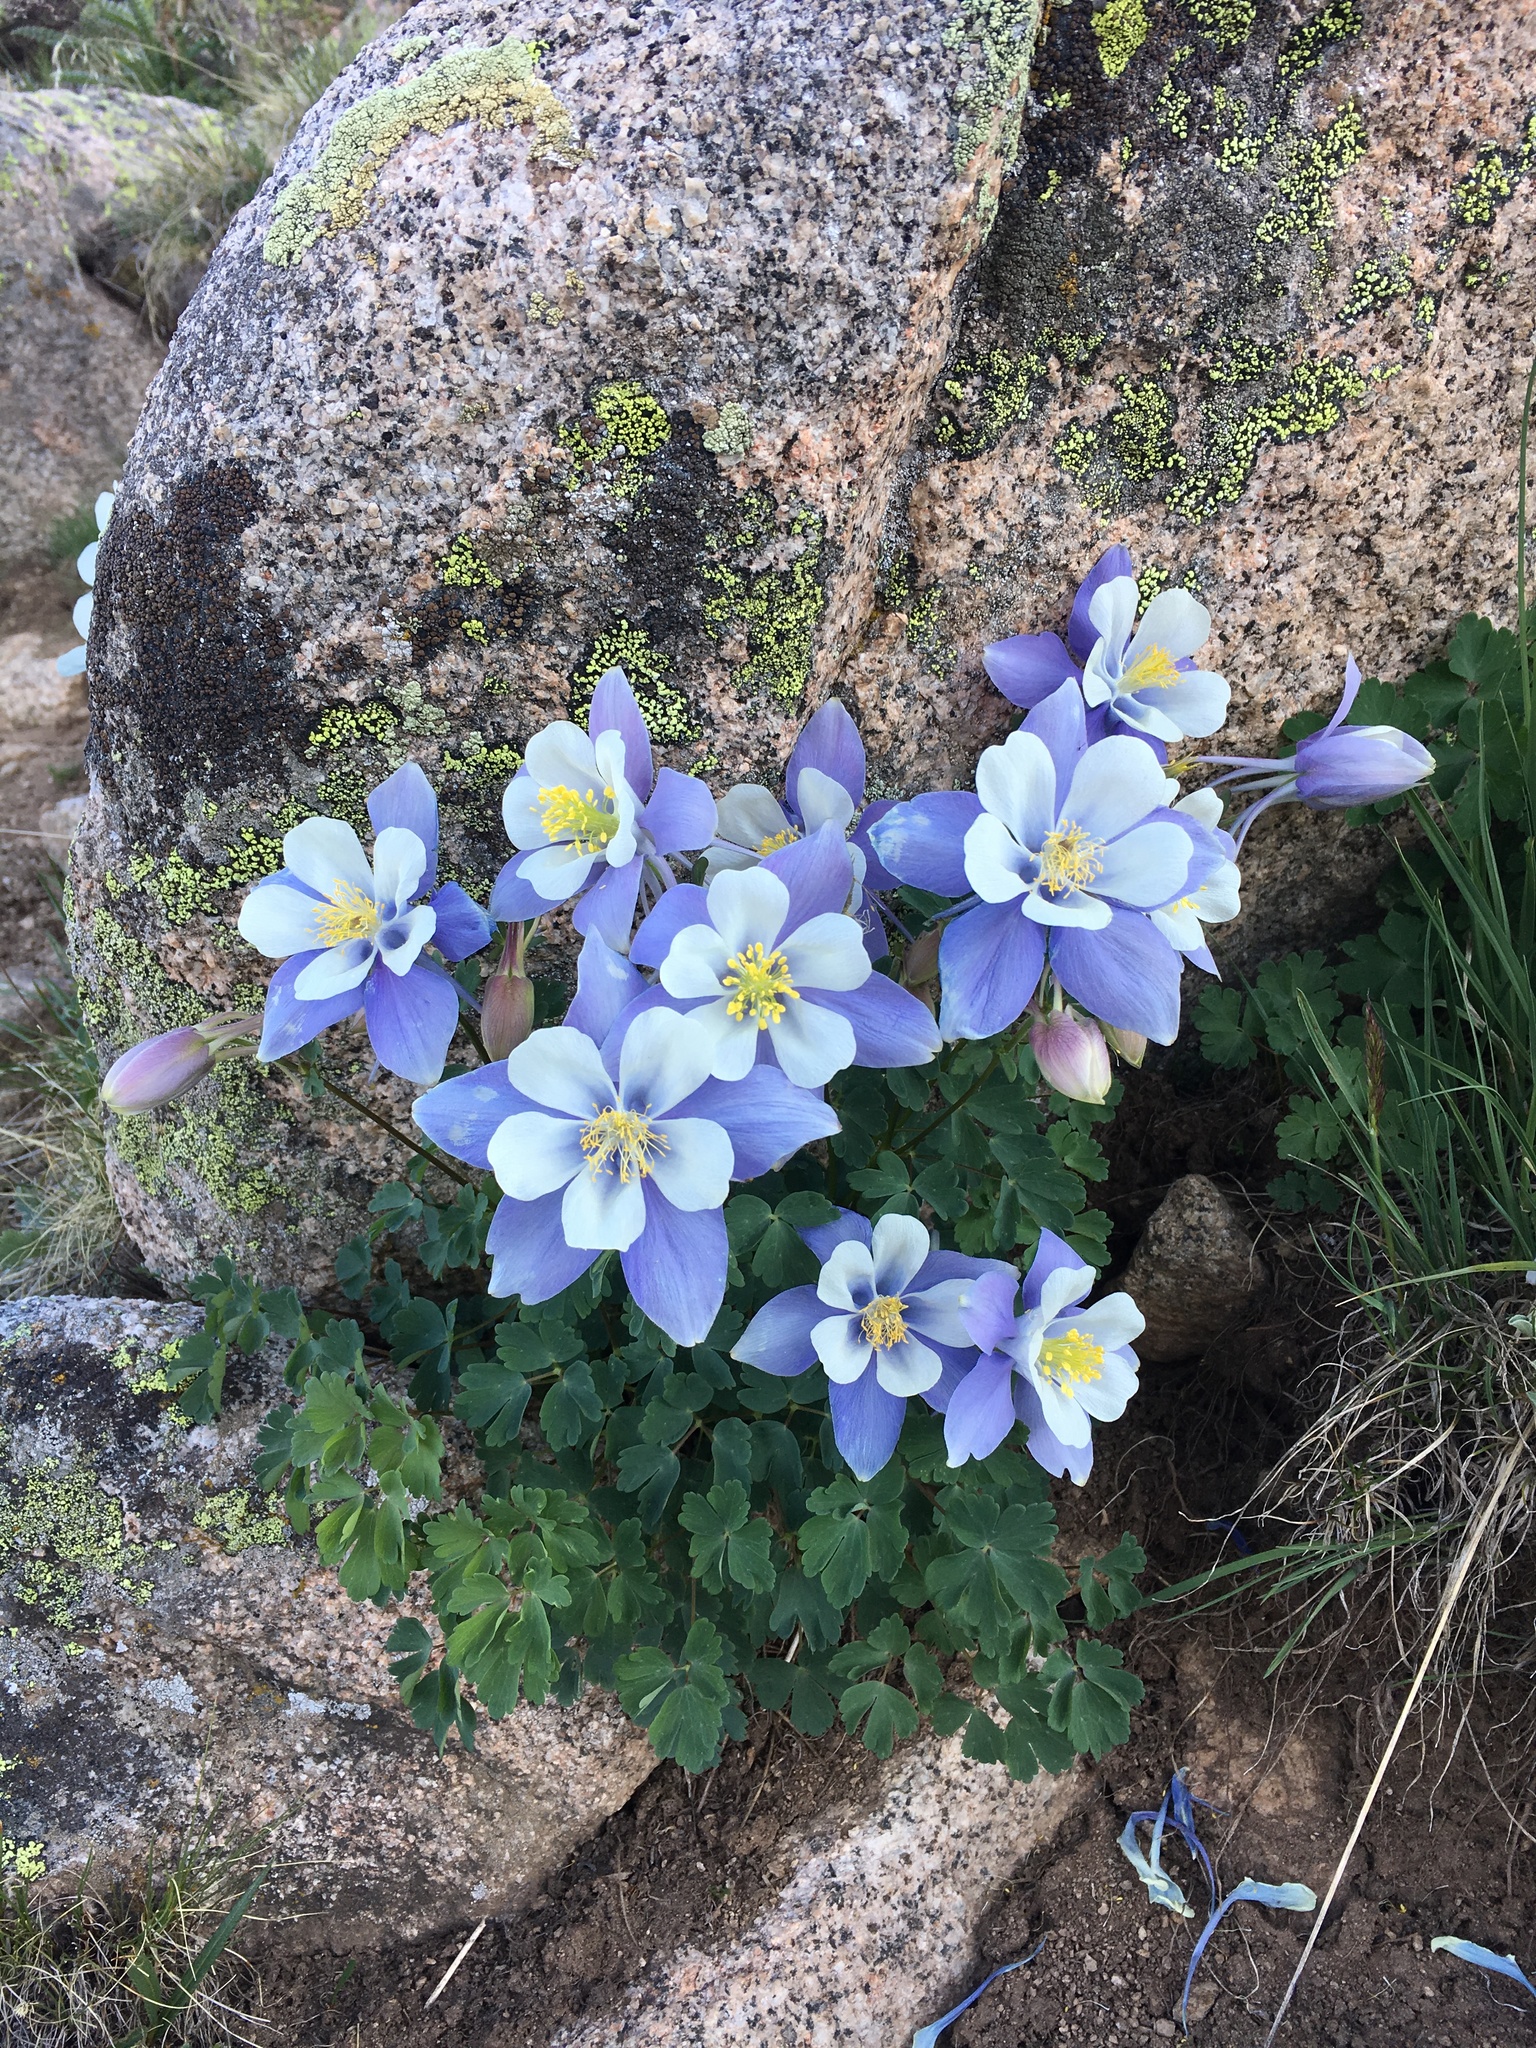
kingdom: Plantae
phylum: Tracheophyta
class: Magnoliopsida
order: Ranunculales
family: Ranunculaceae
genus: Aquilegia
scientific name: Aquilegia coerulea
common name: Rocky mountain columbine
